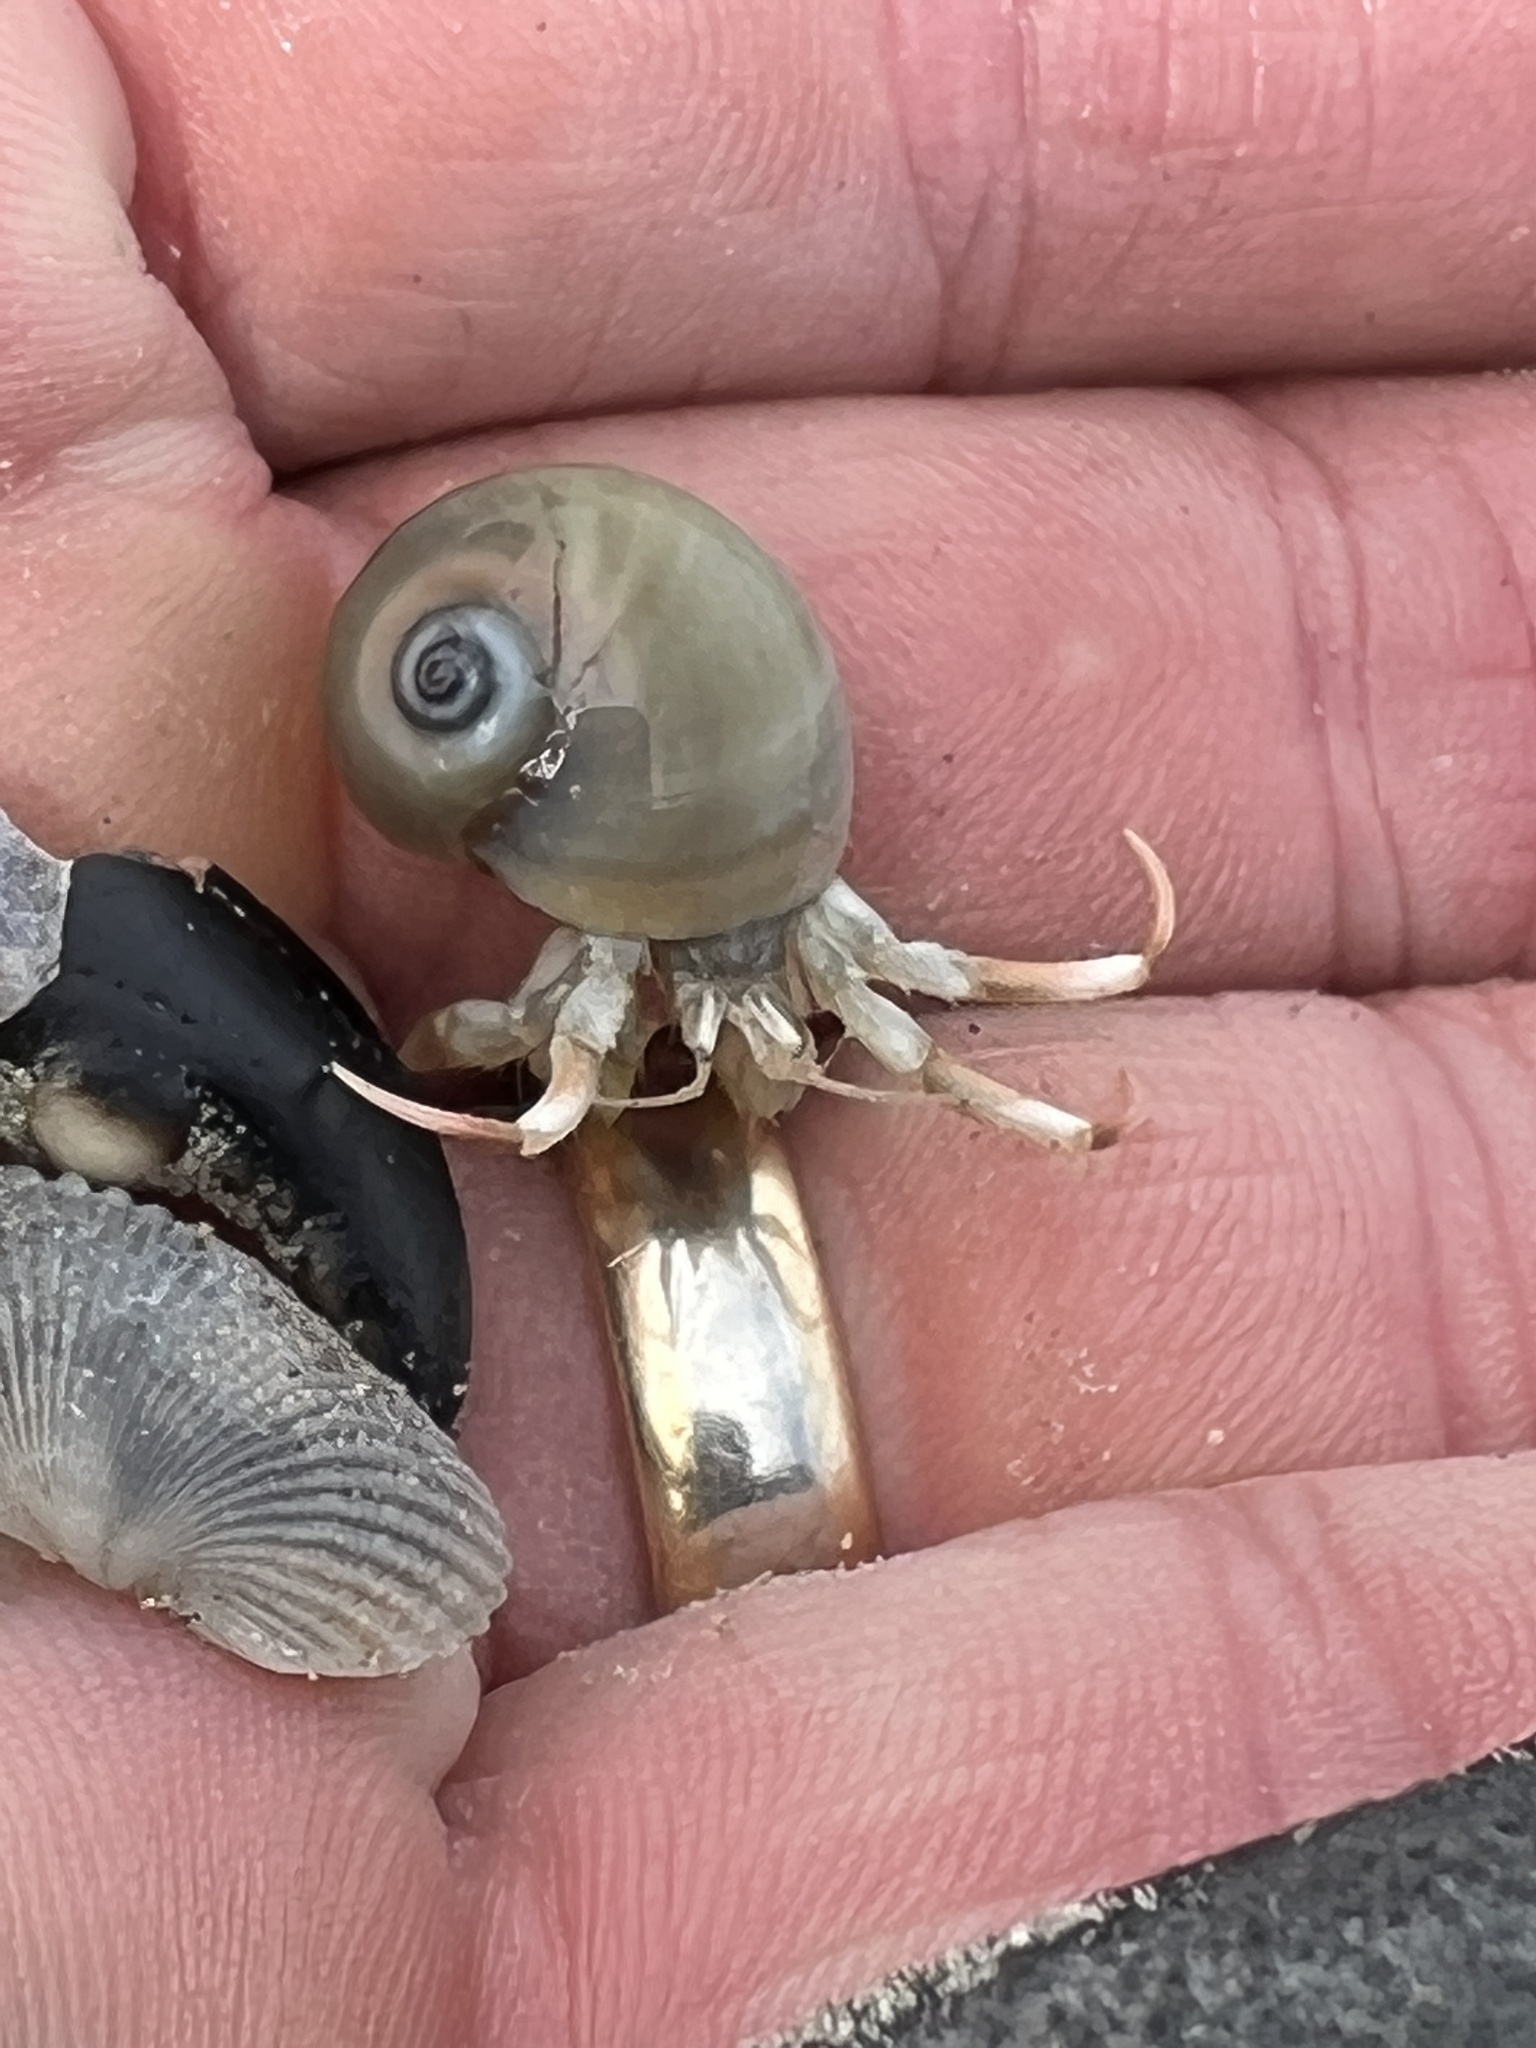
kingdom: Animalia
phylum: Arthropoda
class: Malacostraca
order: Decapoda
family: Diogenidae
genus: Isocheles
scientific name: Isocheles wurdemanni
